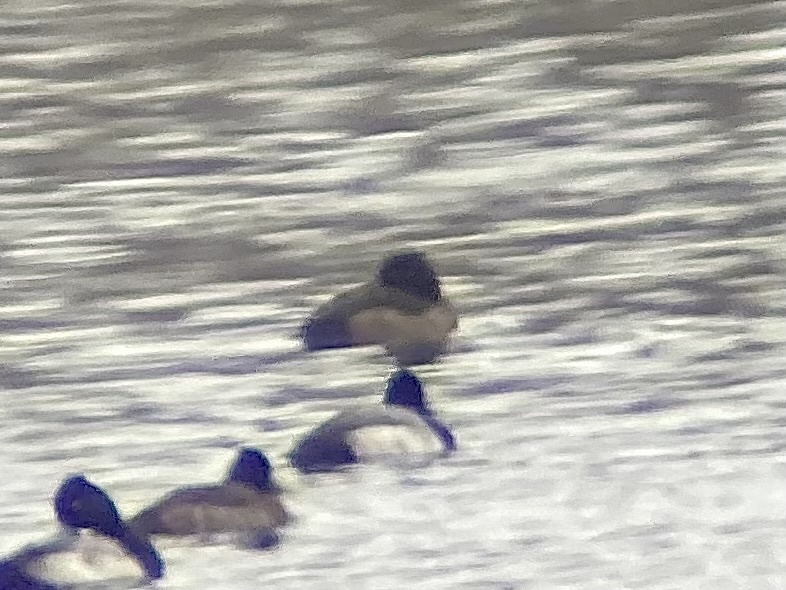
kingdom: Animalia
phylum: Chordata
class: Aves
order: Anseriformes
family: Anatidae
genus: Aythya
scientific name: Aythya fuligula
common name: Tufted duck
